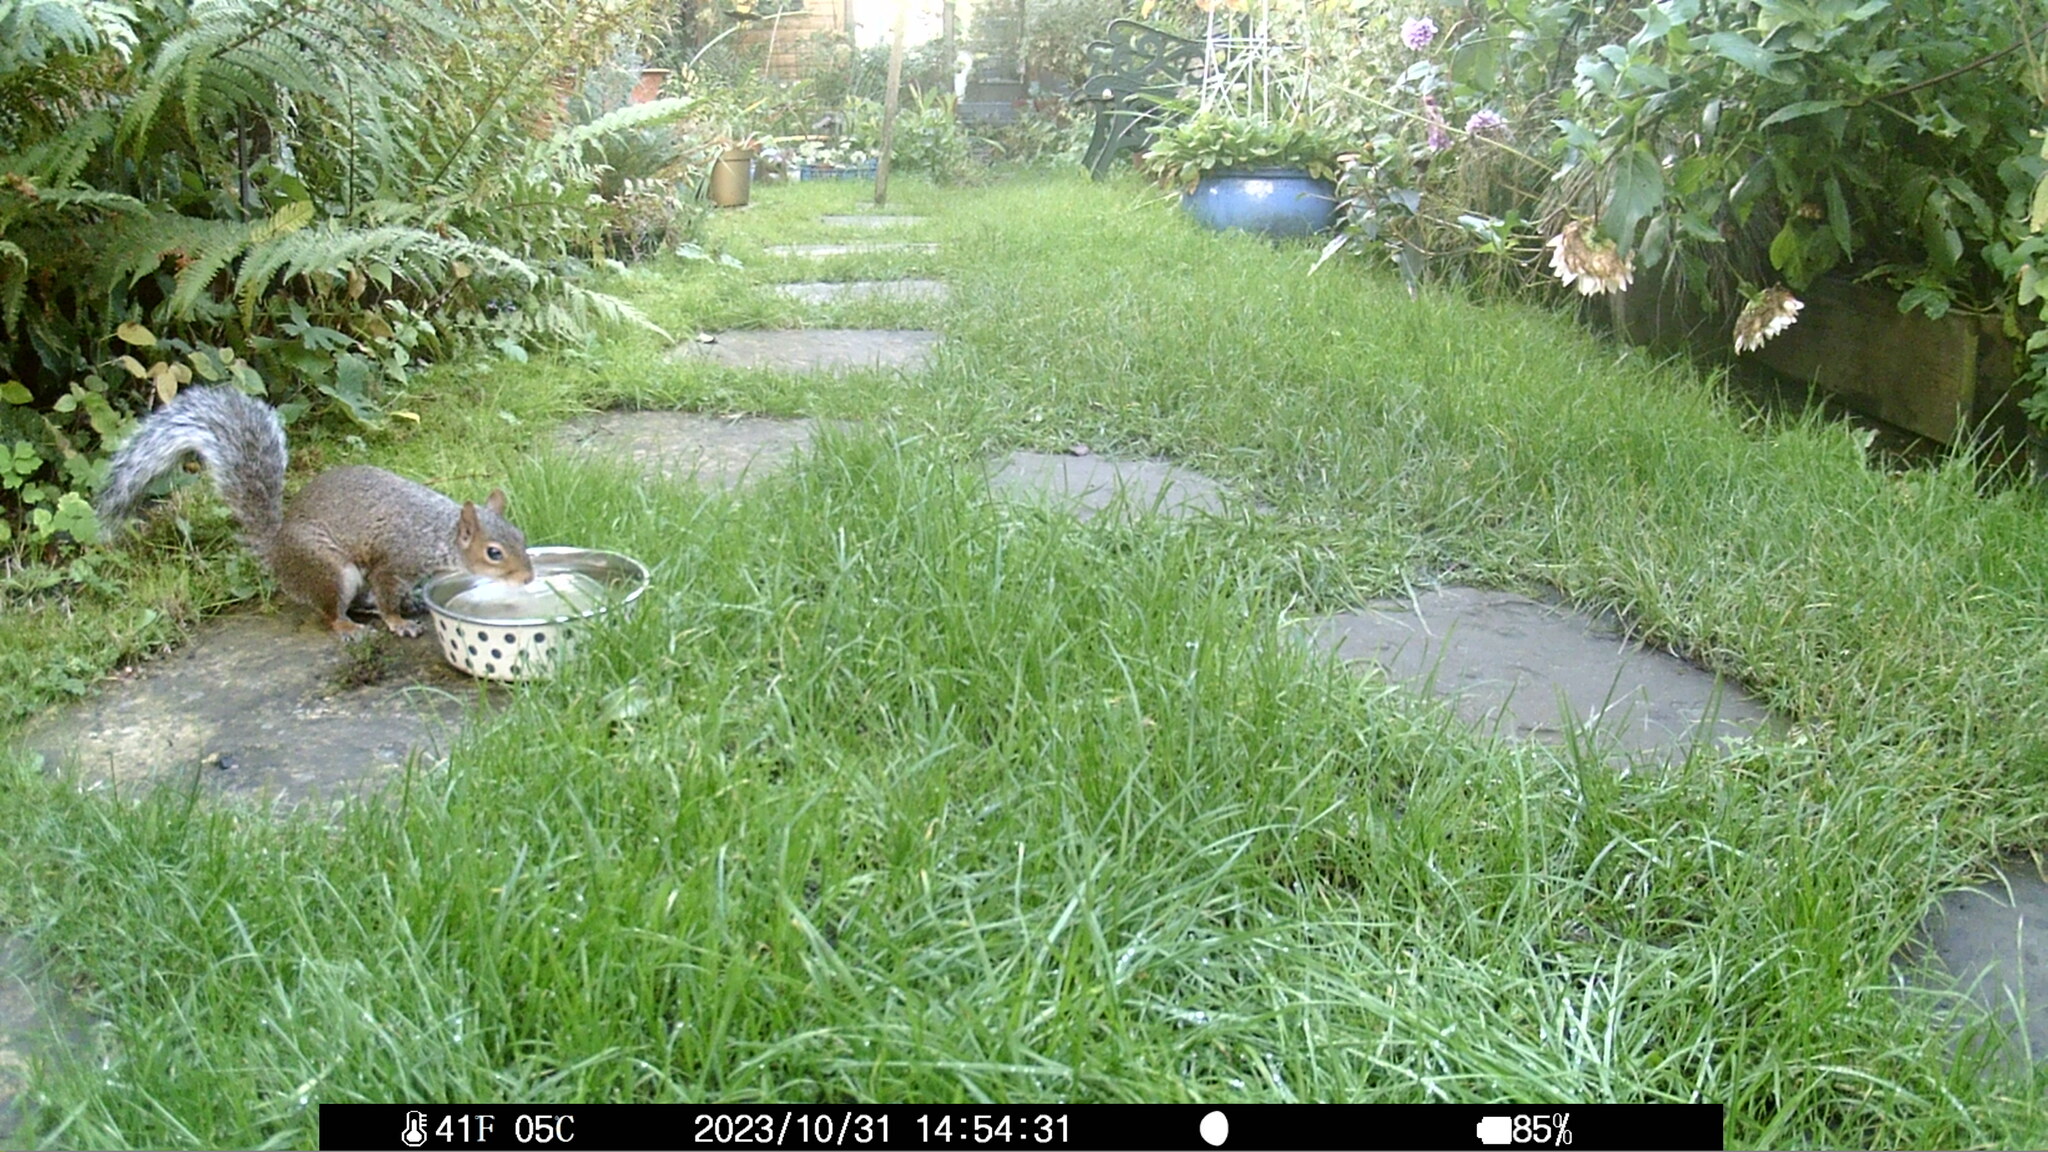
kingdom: Animalia
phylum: Chordata
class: Mammalia
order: Rodentia
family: Sciuridae
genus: Sciurus
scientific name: Sciurus carolinensis
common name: Eastern gray squirrel
